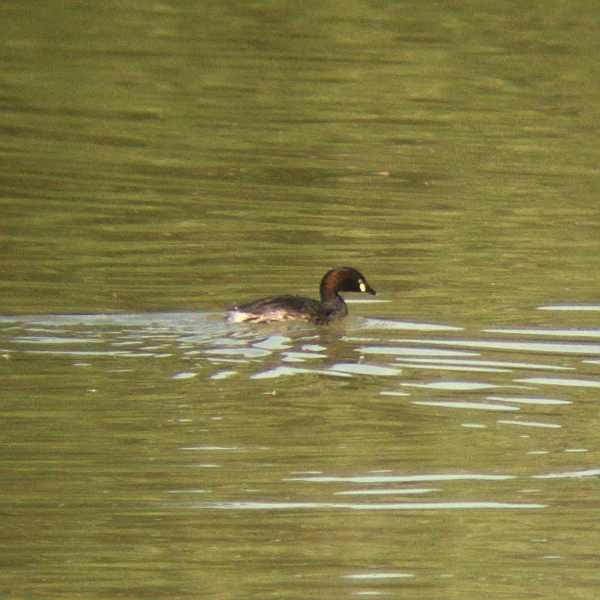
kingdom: Animalia
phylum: Chordata
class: Aves
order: Podicipediformes
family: Podicipedidae
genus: Tachybaptus
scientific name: Tachybaptus novaehollandiae
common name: Australasian grebe
